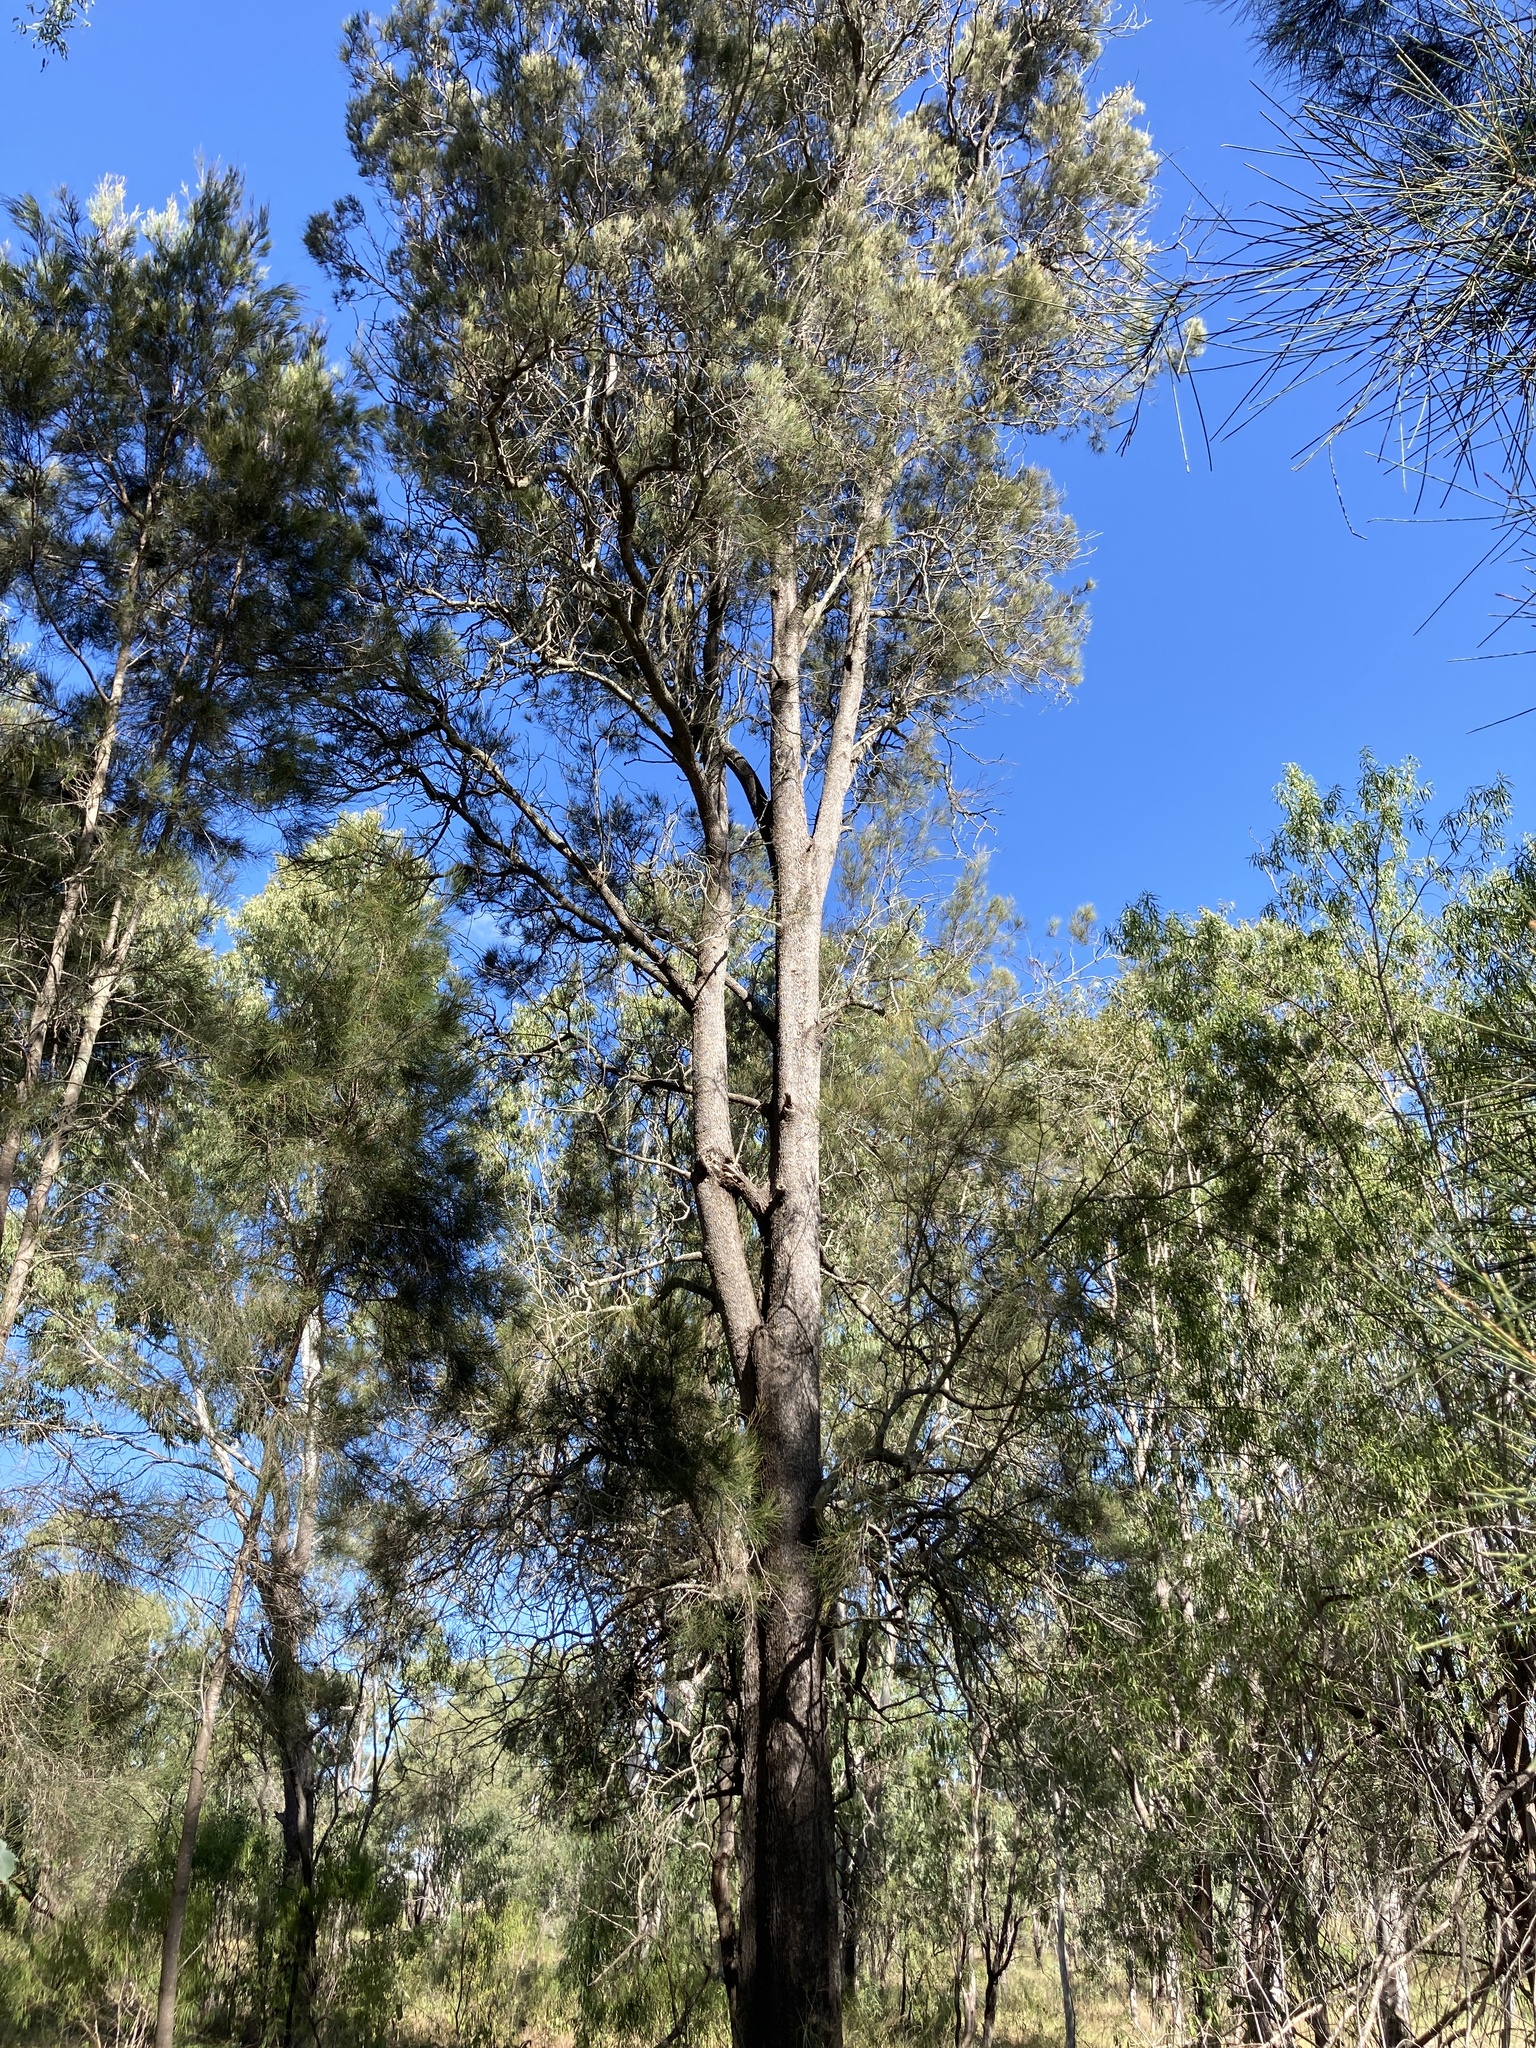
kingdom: Plantae
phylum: Tracheophyta
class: Magnoliopsida
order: Fagales
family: Casuarinaceae
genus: Casuarina
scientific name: Casuarina cristata
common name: Black-oak
